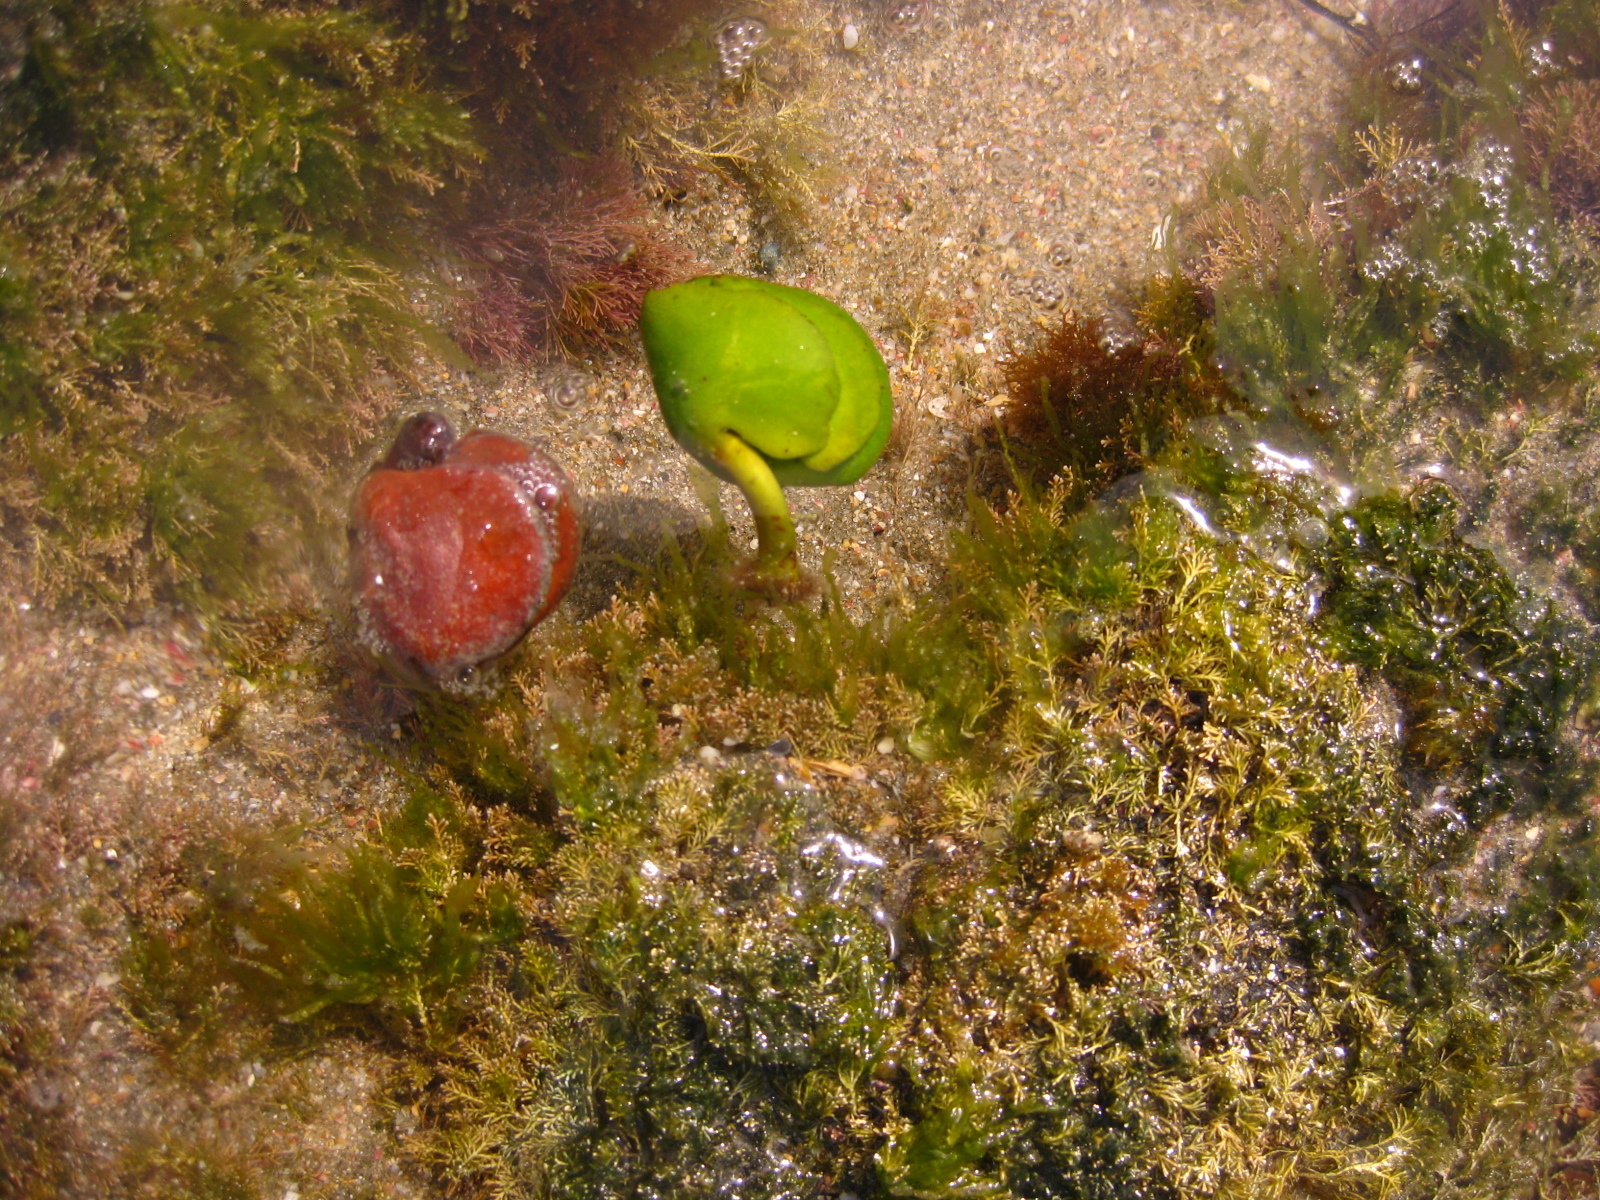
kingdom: Plantae
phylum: Tracheophyta
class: Magnoliopsida
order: Lamiales
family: Acanthaceae
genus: Avicennia
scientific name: Avicennia marina
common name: Gray mangrove
